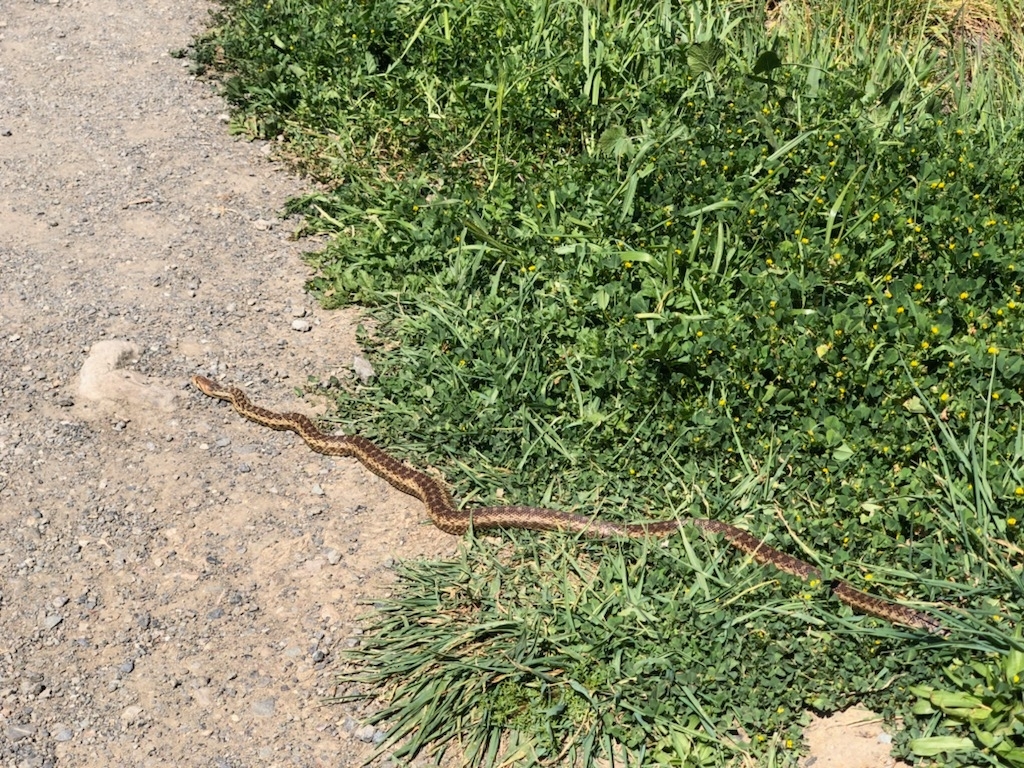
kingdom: Animalia
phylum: Chordata
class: Squamata
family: Colubridae
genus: Pituophis
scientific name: Pituophis catenifer
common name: Gopher snake
